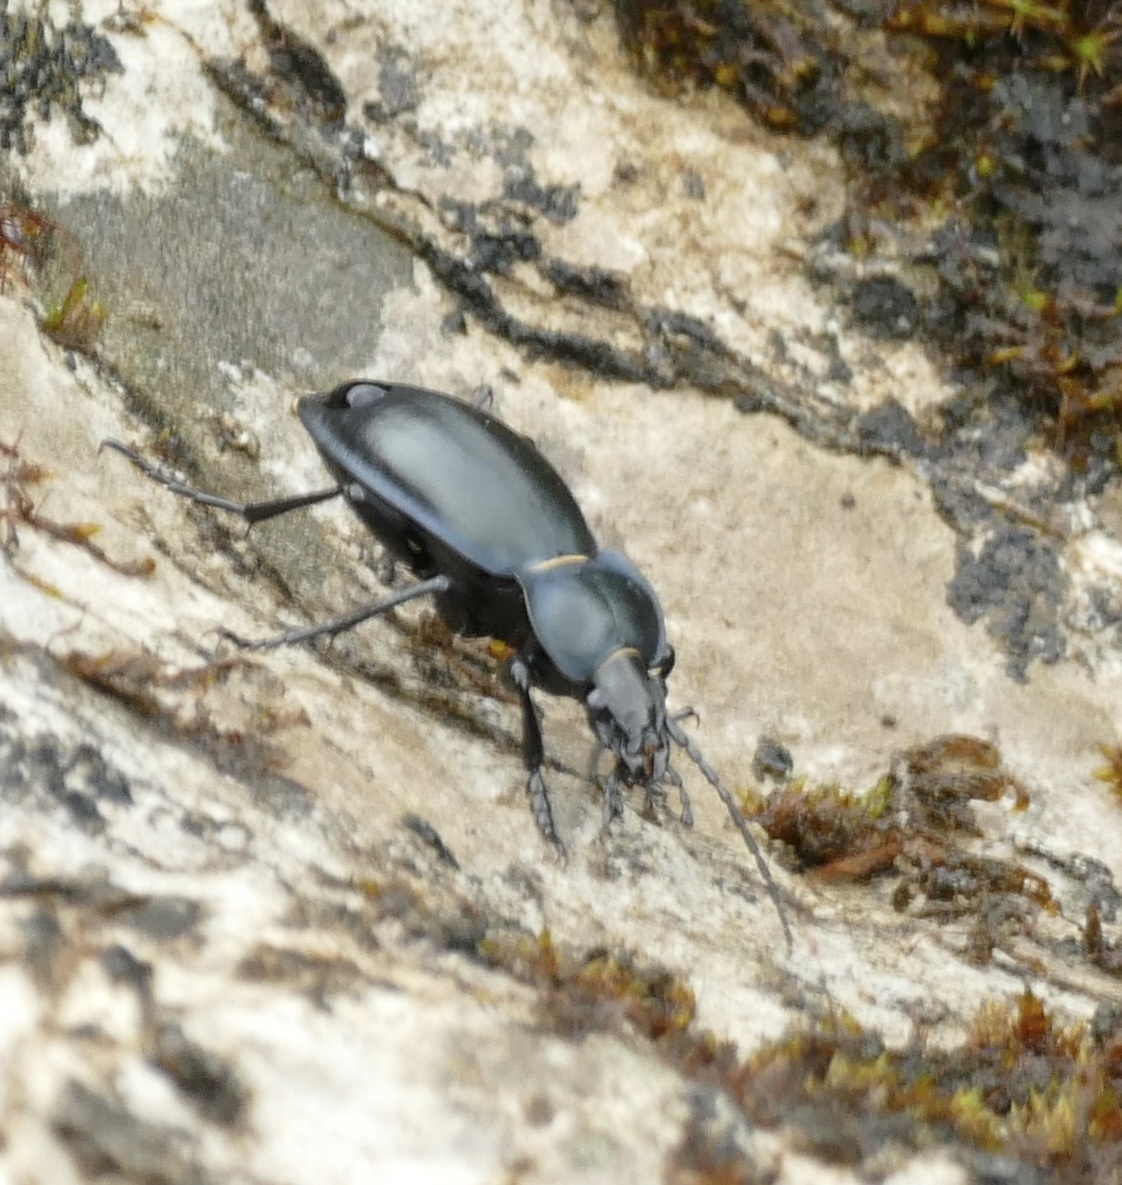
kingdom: Animalia
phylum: Arthropoda
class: Insecta
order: Coleoptera
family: Carabidae
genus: Carabus
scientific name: Carabus glabratus
